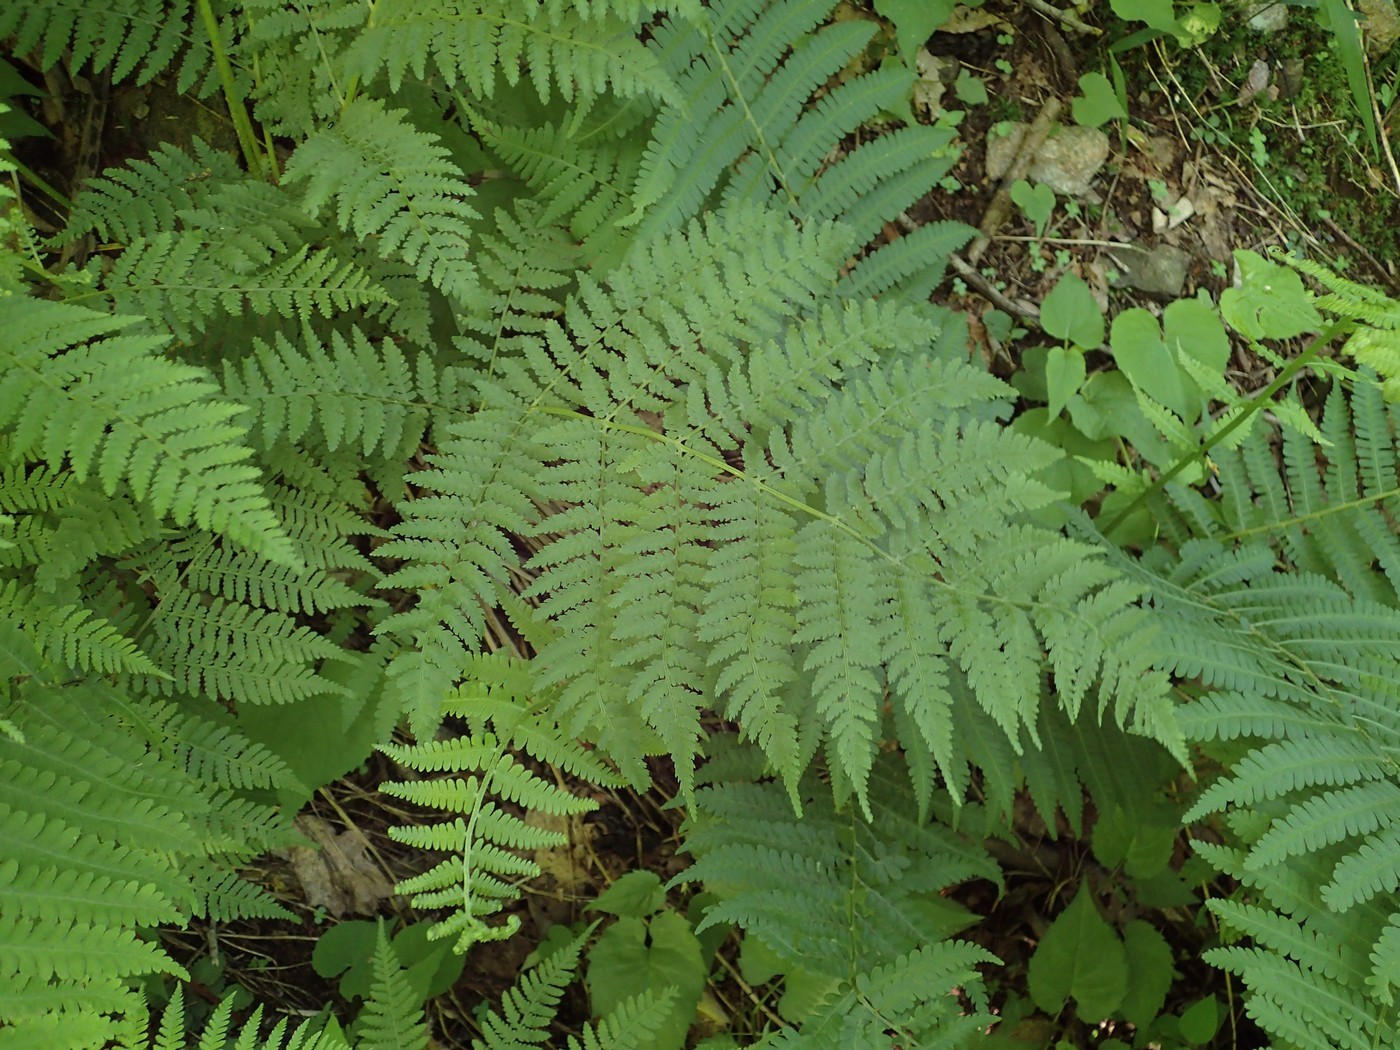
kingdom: Plantae
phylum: Tracheophyta
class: Polypodiopsida
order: Polypodiales
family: Athyriaceae
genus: Athyrium
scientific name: Athyrium asplenioides
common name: Southern lady fern
